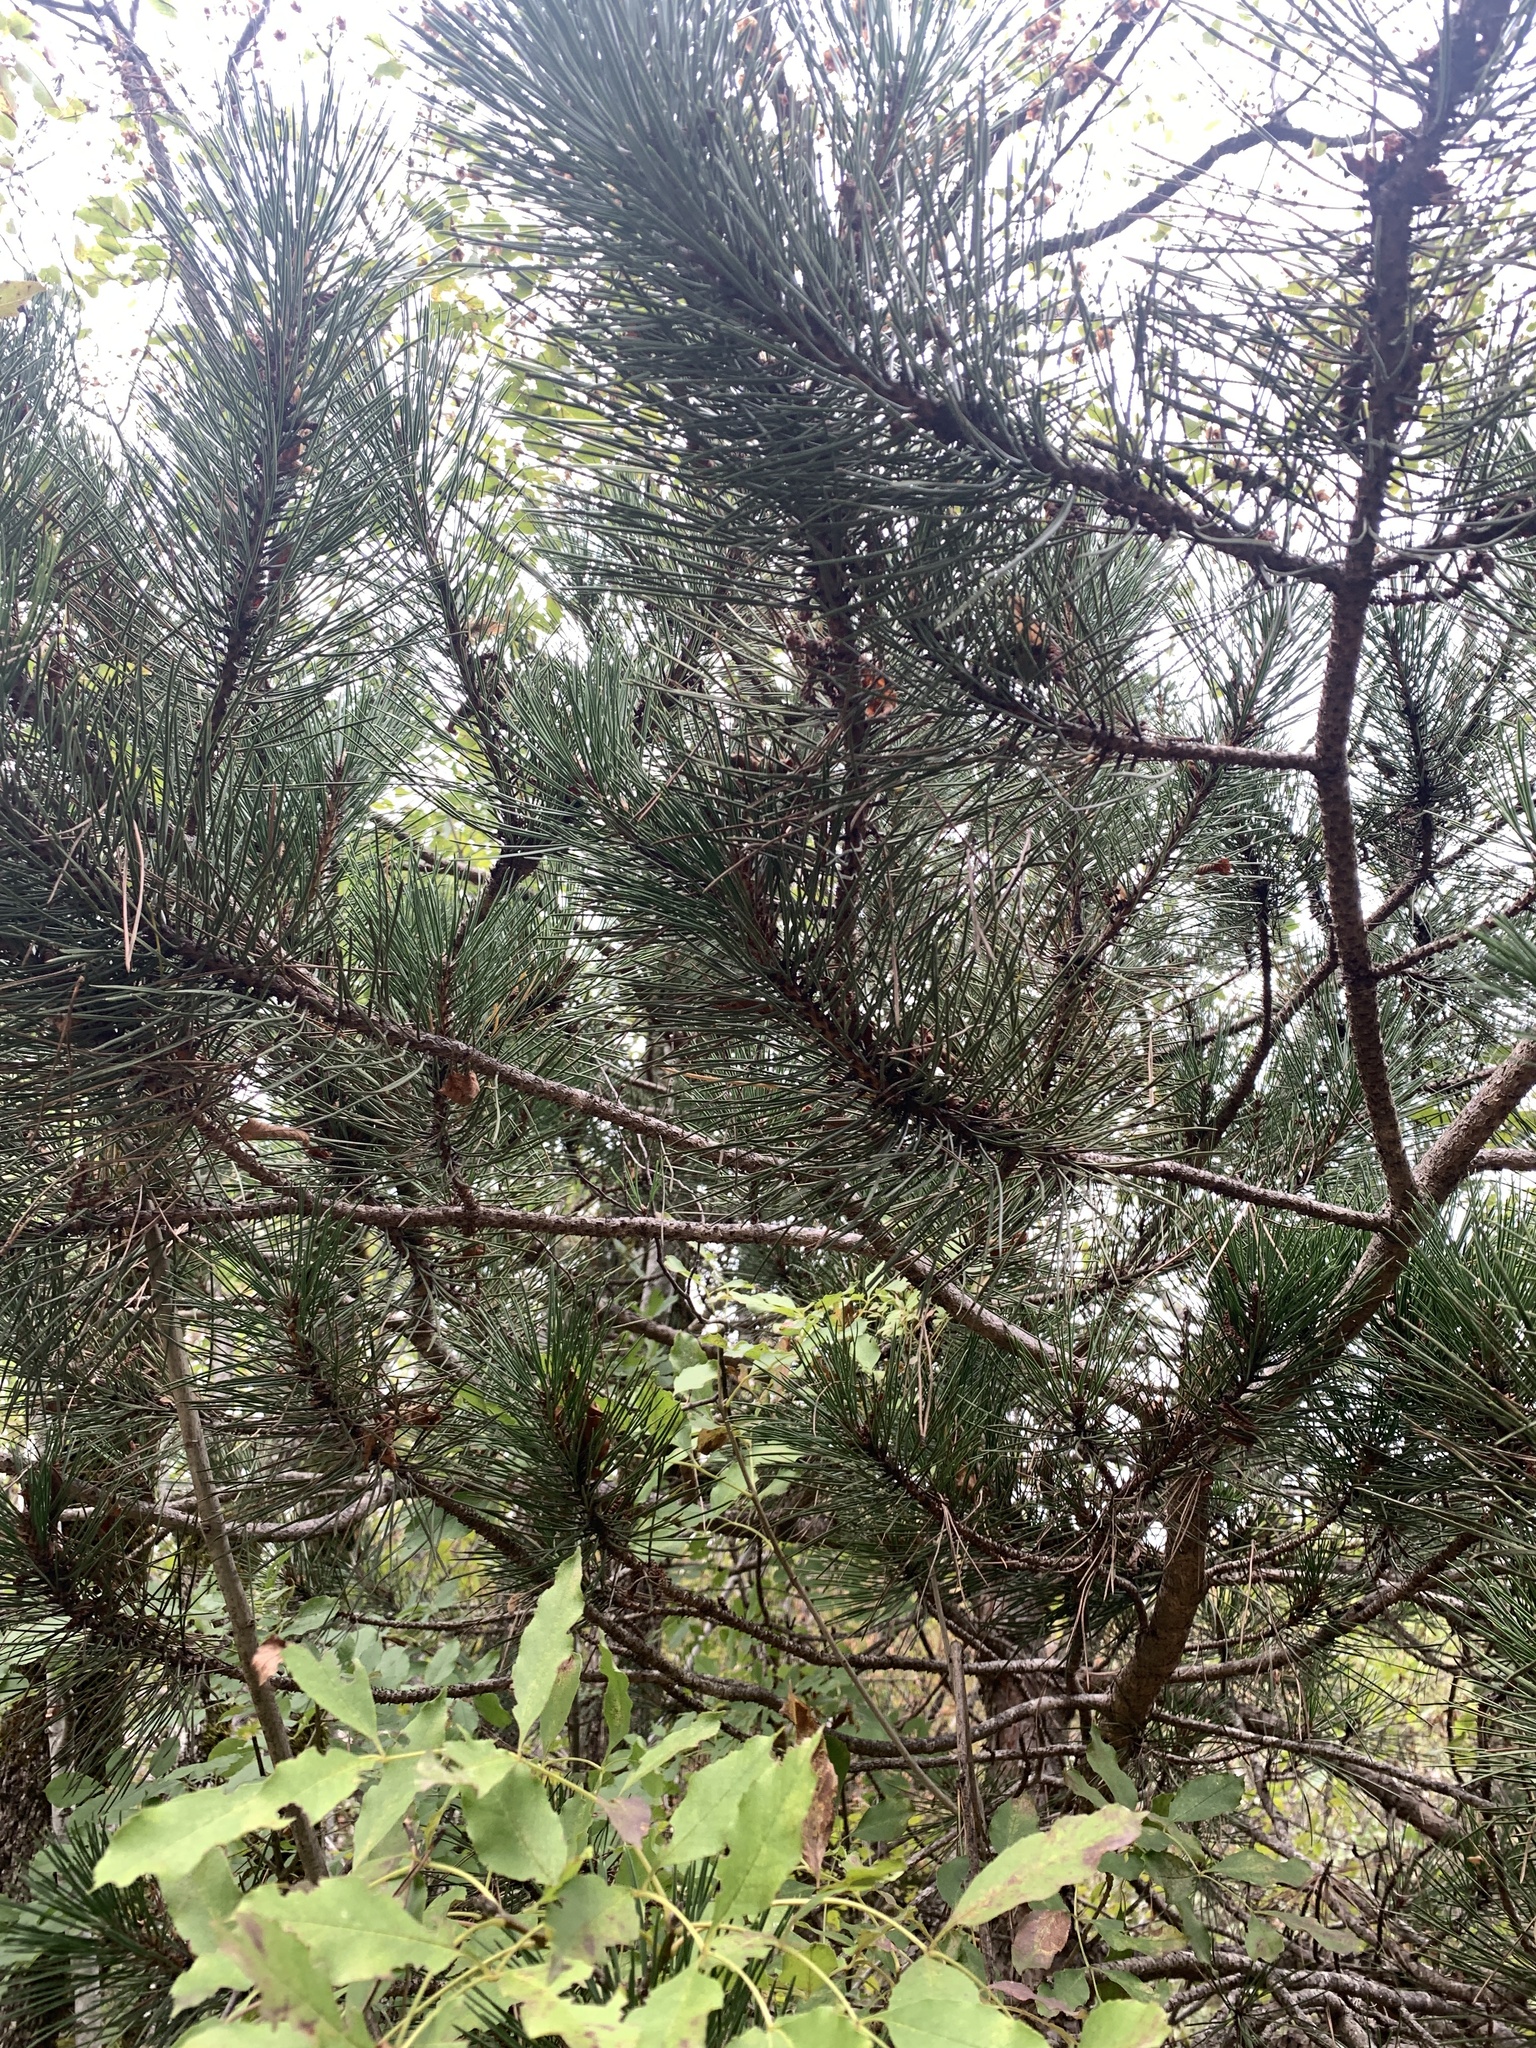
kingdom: Plantae
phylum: Tracheophyta
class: Pinopsida
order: Pinales
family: Pinaceae
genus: Pinus
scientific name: Pinus nigra
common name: Austrian pine
